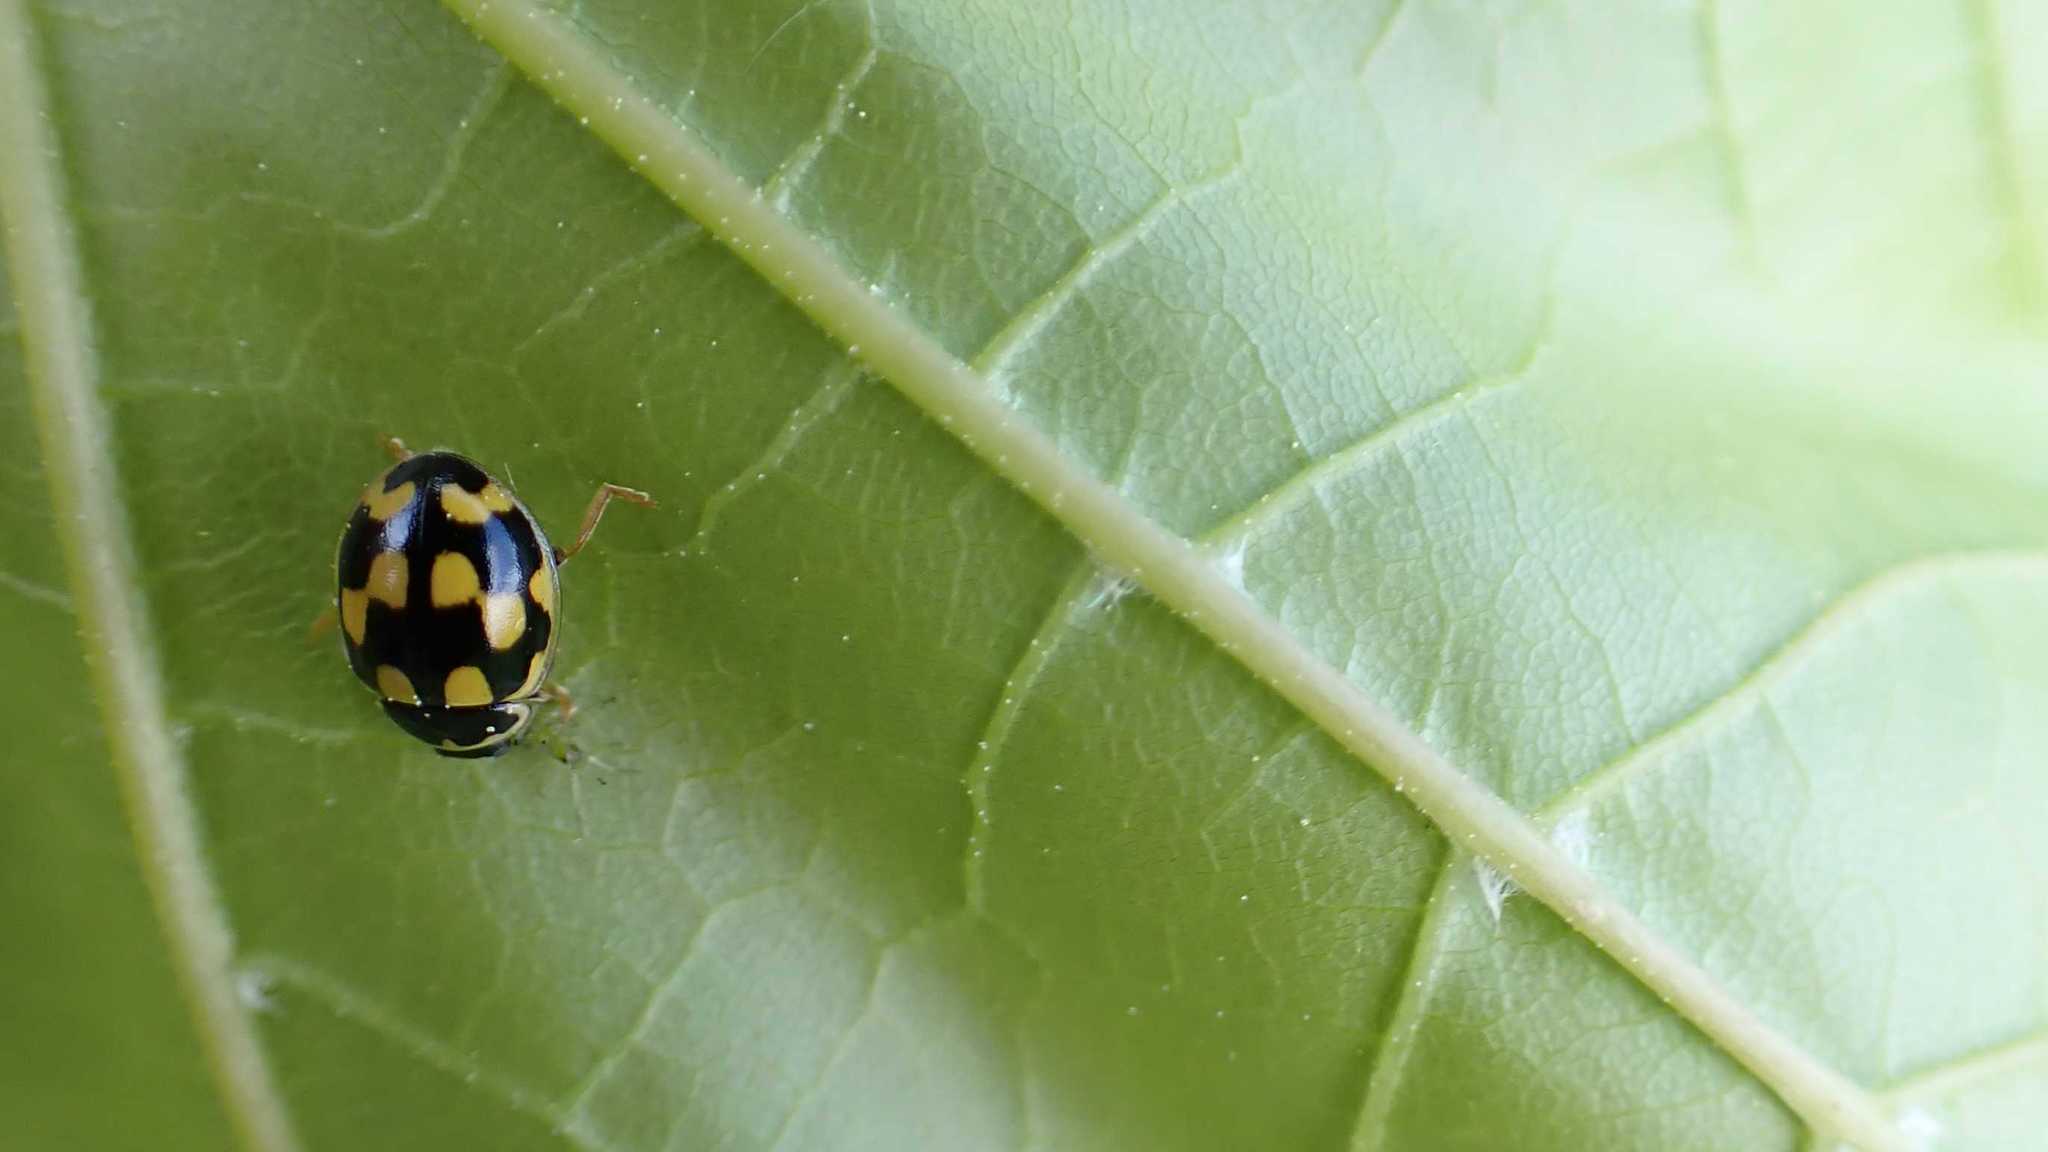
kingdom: Animalia
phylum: Arthropoda
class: Insecta
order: Coleoptera
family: Coccinellidae
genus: Propylaea
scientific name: Propylaea quatuordecimpunctata
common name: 14-spotted ladybird beetle
